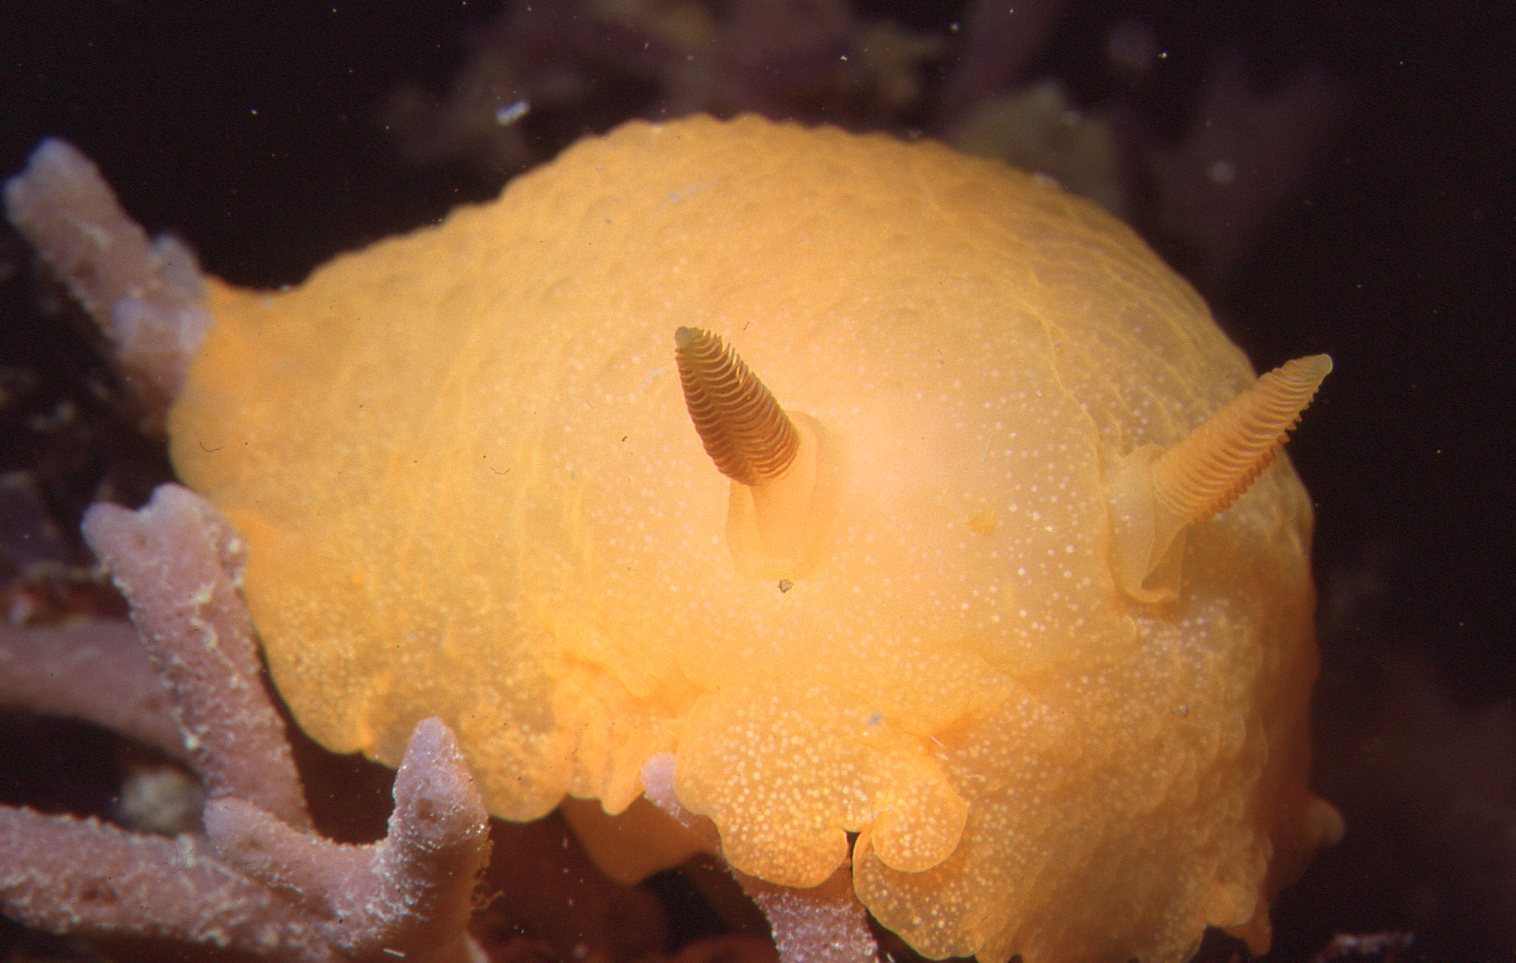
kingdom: Animalia
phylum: Mollusca
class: Gastropoda
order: Nudibranchia
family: Dendrodorididae
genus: Doriopsilla
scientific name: Doriopsilla carneola
